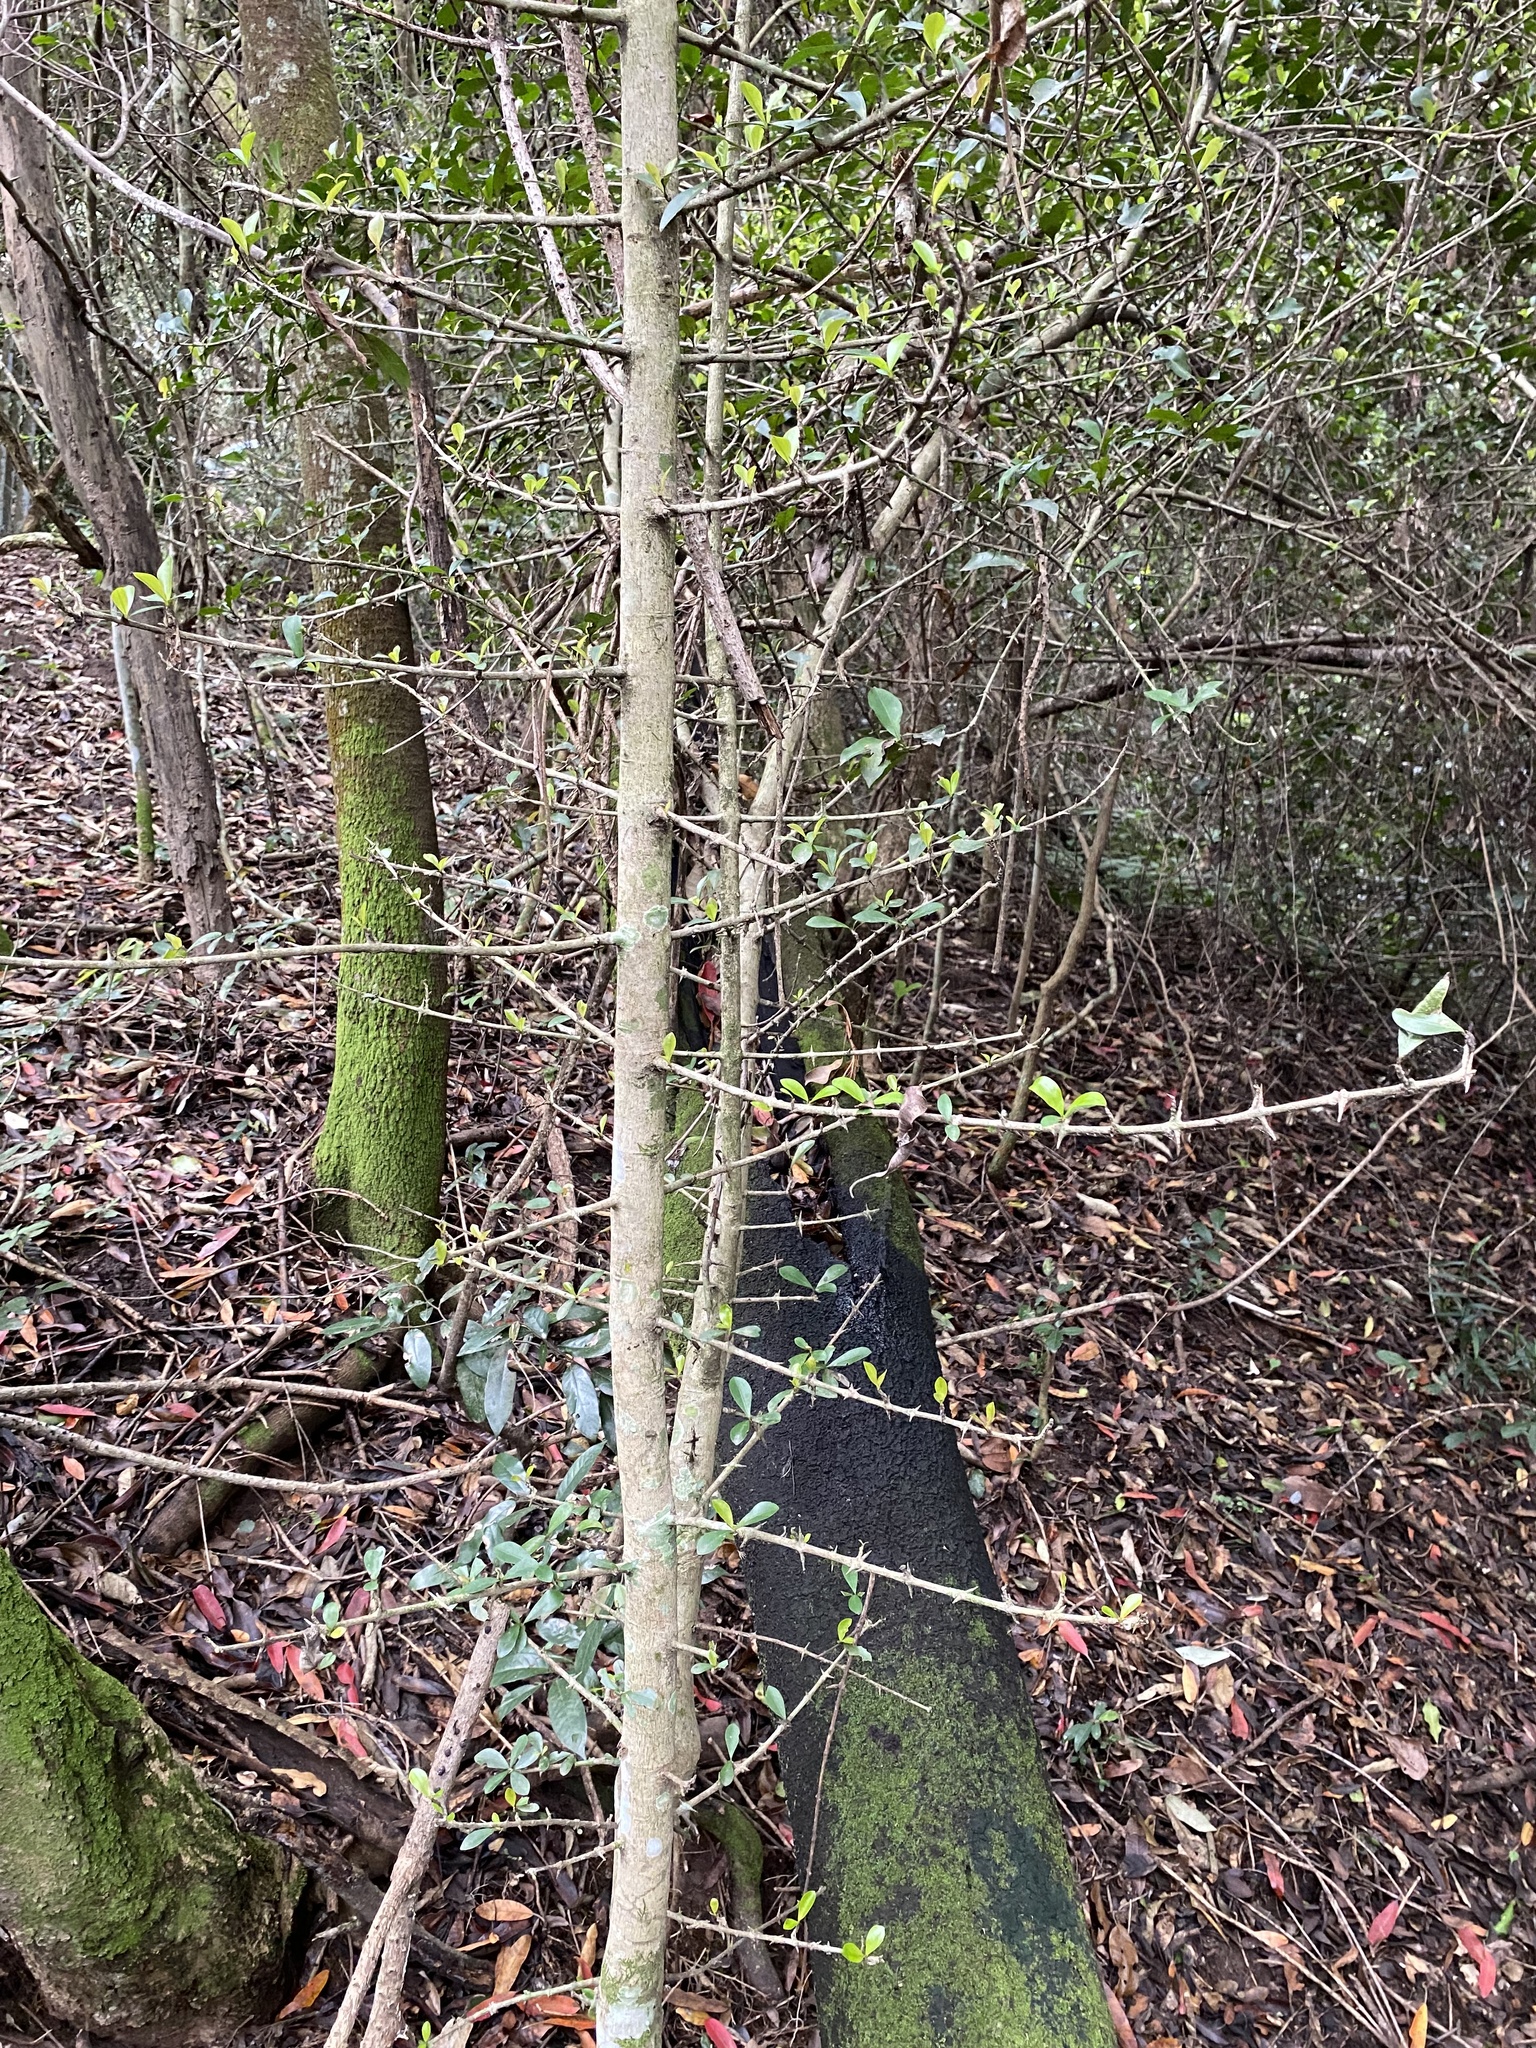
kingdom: Plantae
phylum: Tracheophyta
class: Magnoliopsida
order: Gentianales
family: Rubiaceae
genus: Hyperacanthus
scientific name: Hyperacanthus amoenus
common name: Spiny gardenia
